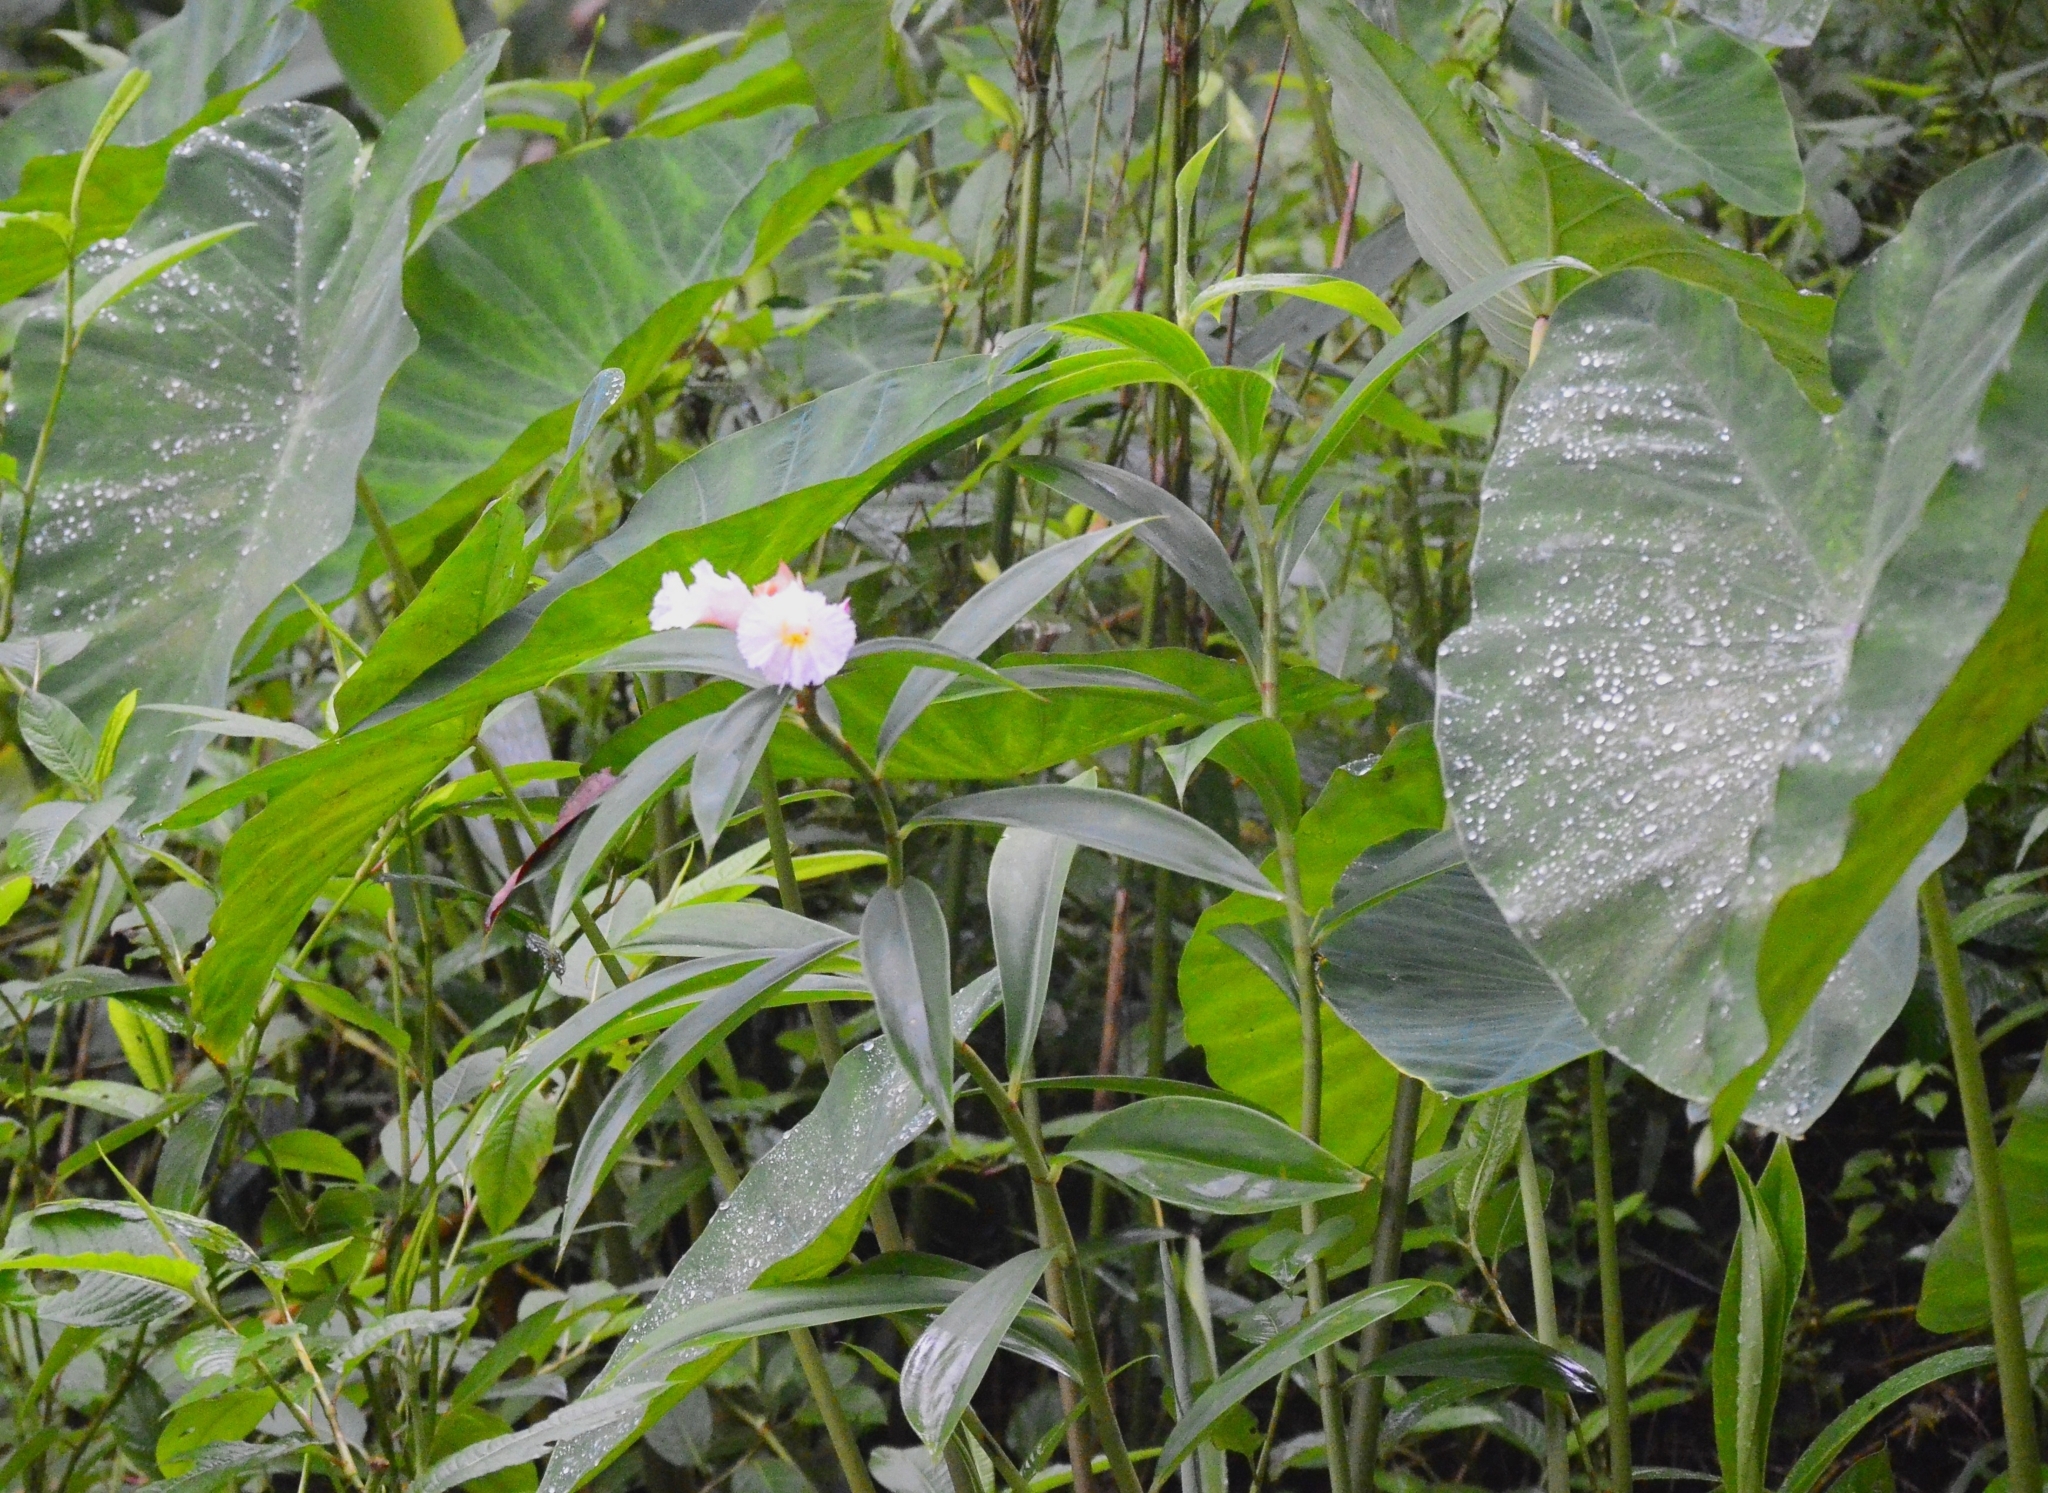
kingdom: Plantae
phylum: Tracheophyta
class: Liliopsida
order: Zingiberales
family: Costaceae
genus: Hellenia
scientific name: Hellenia speciosa
